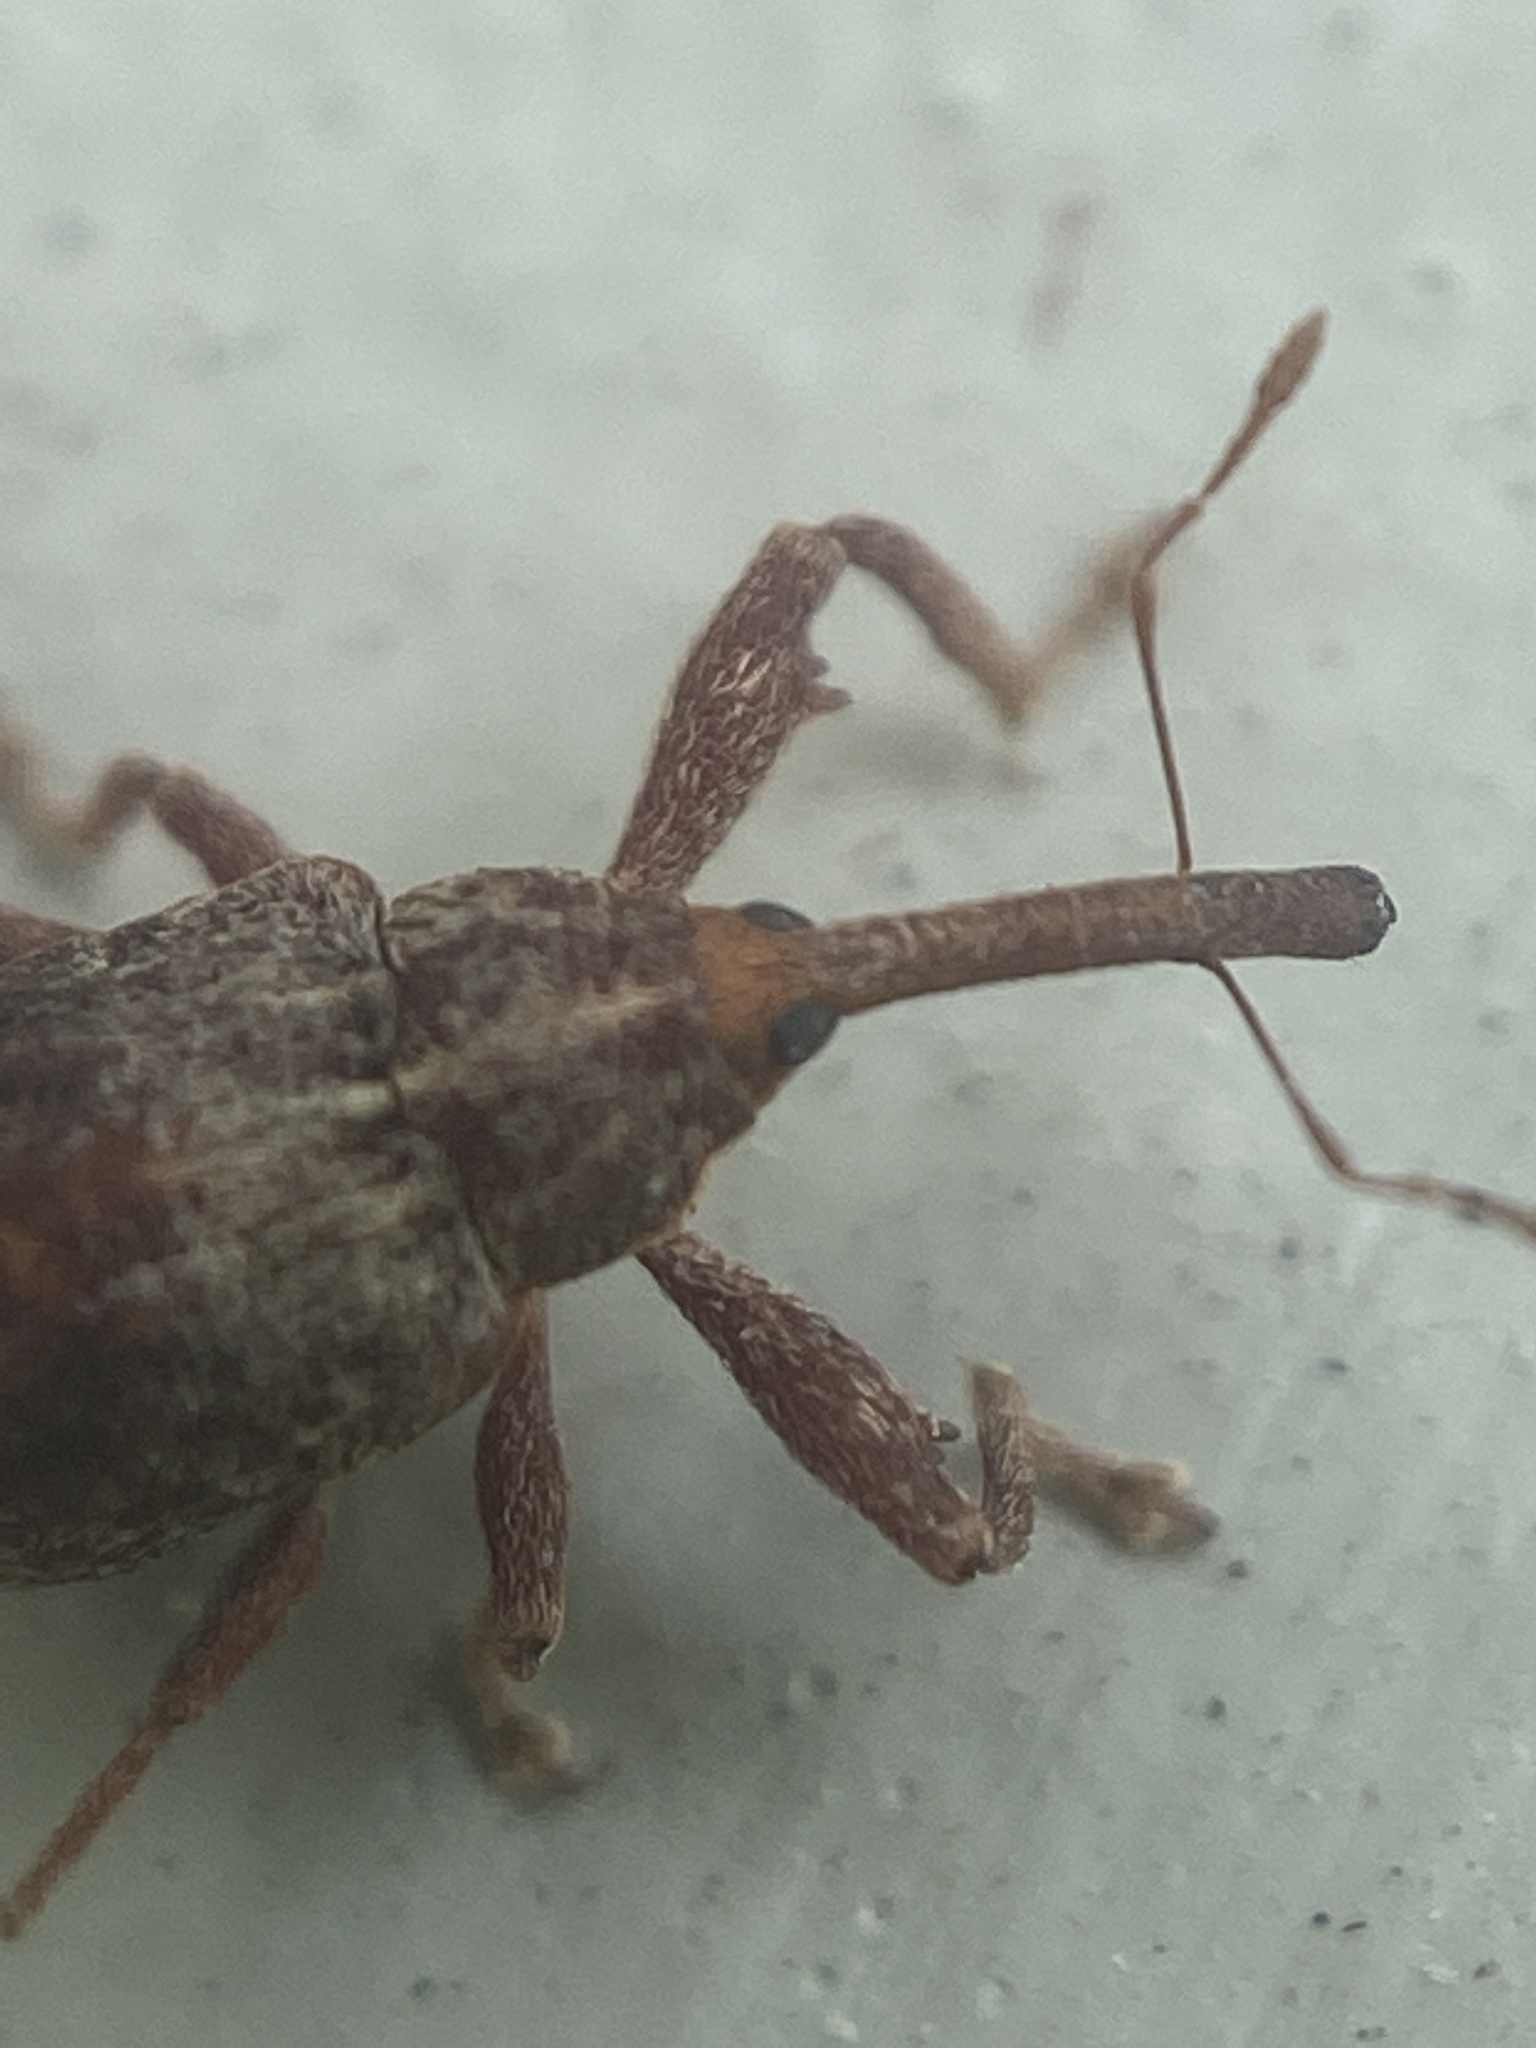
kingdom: Animalia
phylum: Arthropoda
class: Insecta
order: Coleoptera
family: Curculionidae
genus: Anthonomus
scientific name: Anthonomus quadrigibbus
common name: Apple curculio
